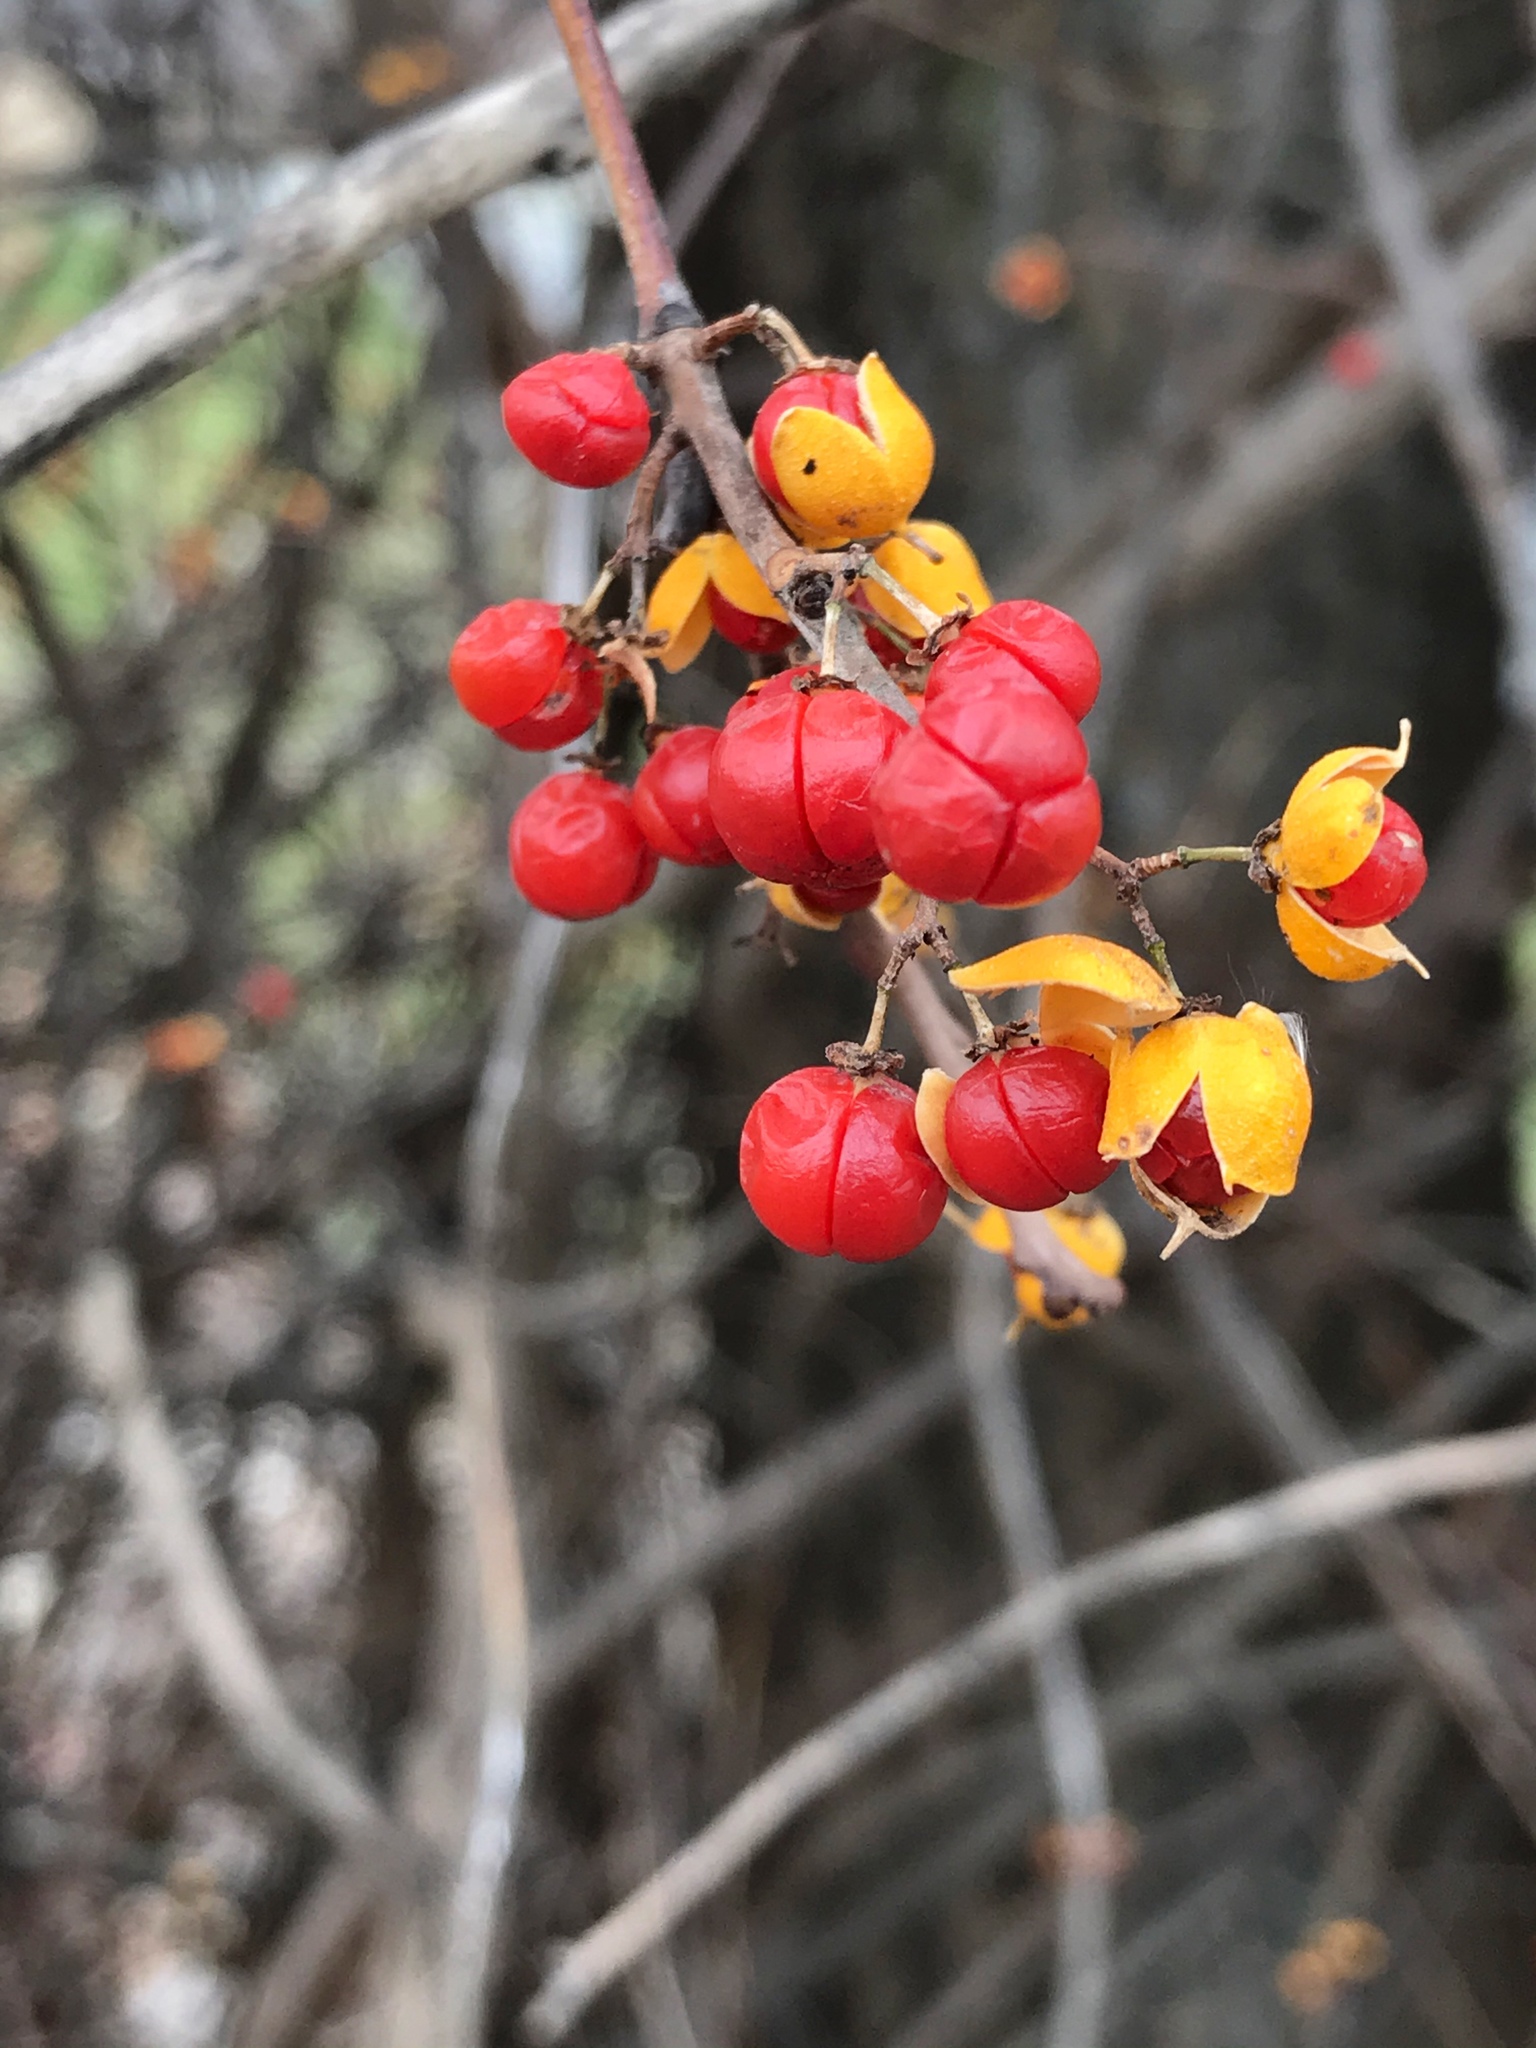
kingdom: Plantae
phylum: Tracheophyta
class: Magnoliopsida
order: Celastrales
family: Celastraceae
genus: Celastrus
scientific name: Celastrus orbiculatus
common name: Oriental bittersweet
